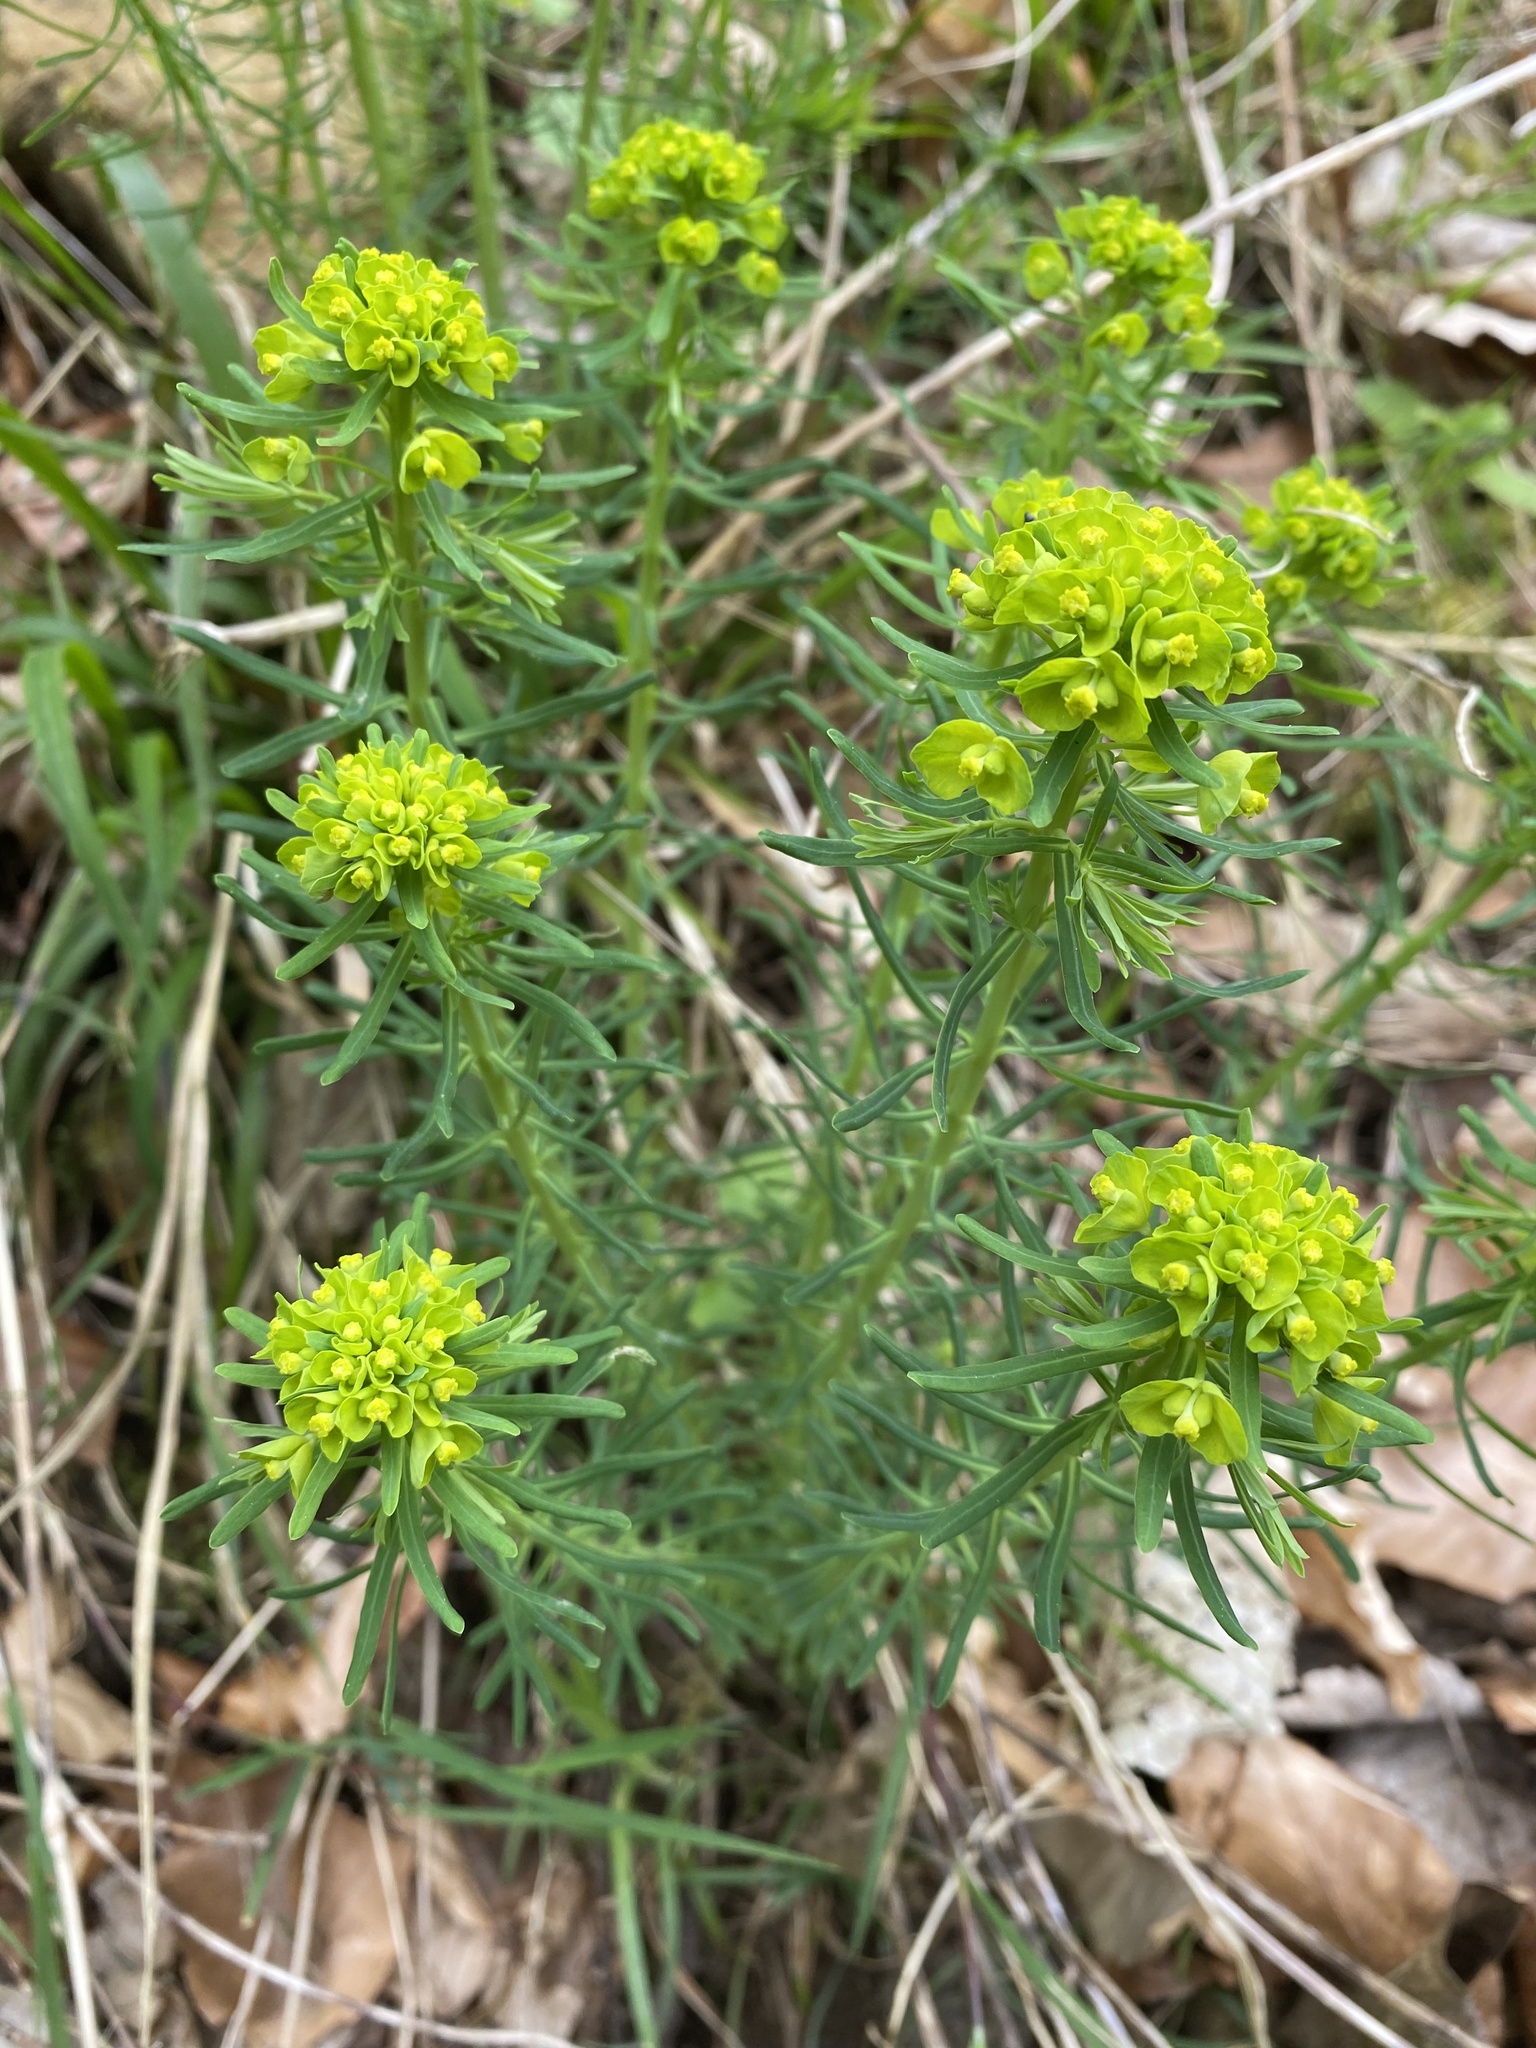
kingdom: Plantae
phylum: Tracheophyta
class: Magnoliopsida
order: Malpighiales
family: Euphorbiaceae
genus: Euphorbia
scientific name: Euphorbia cyparissias
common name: Cypress spurge
